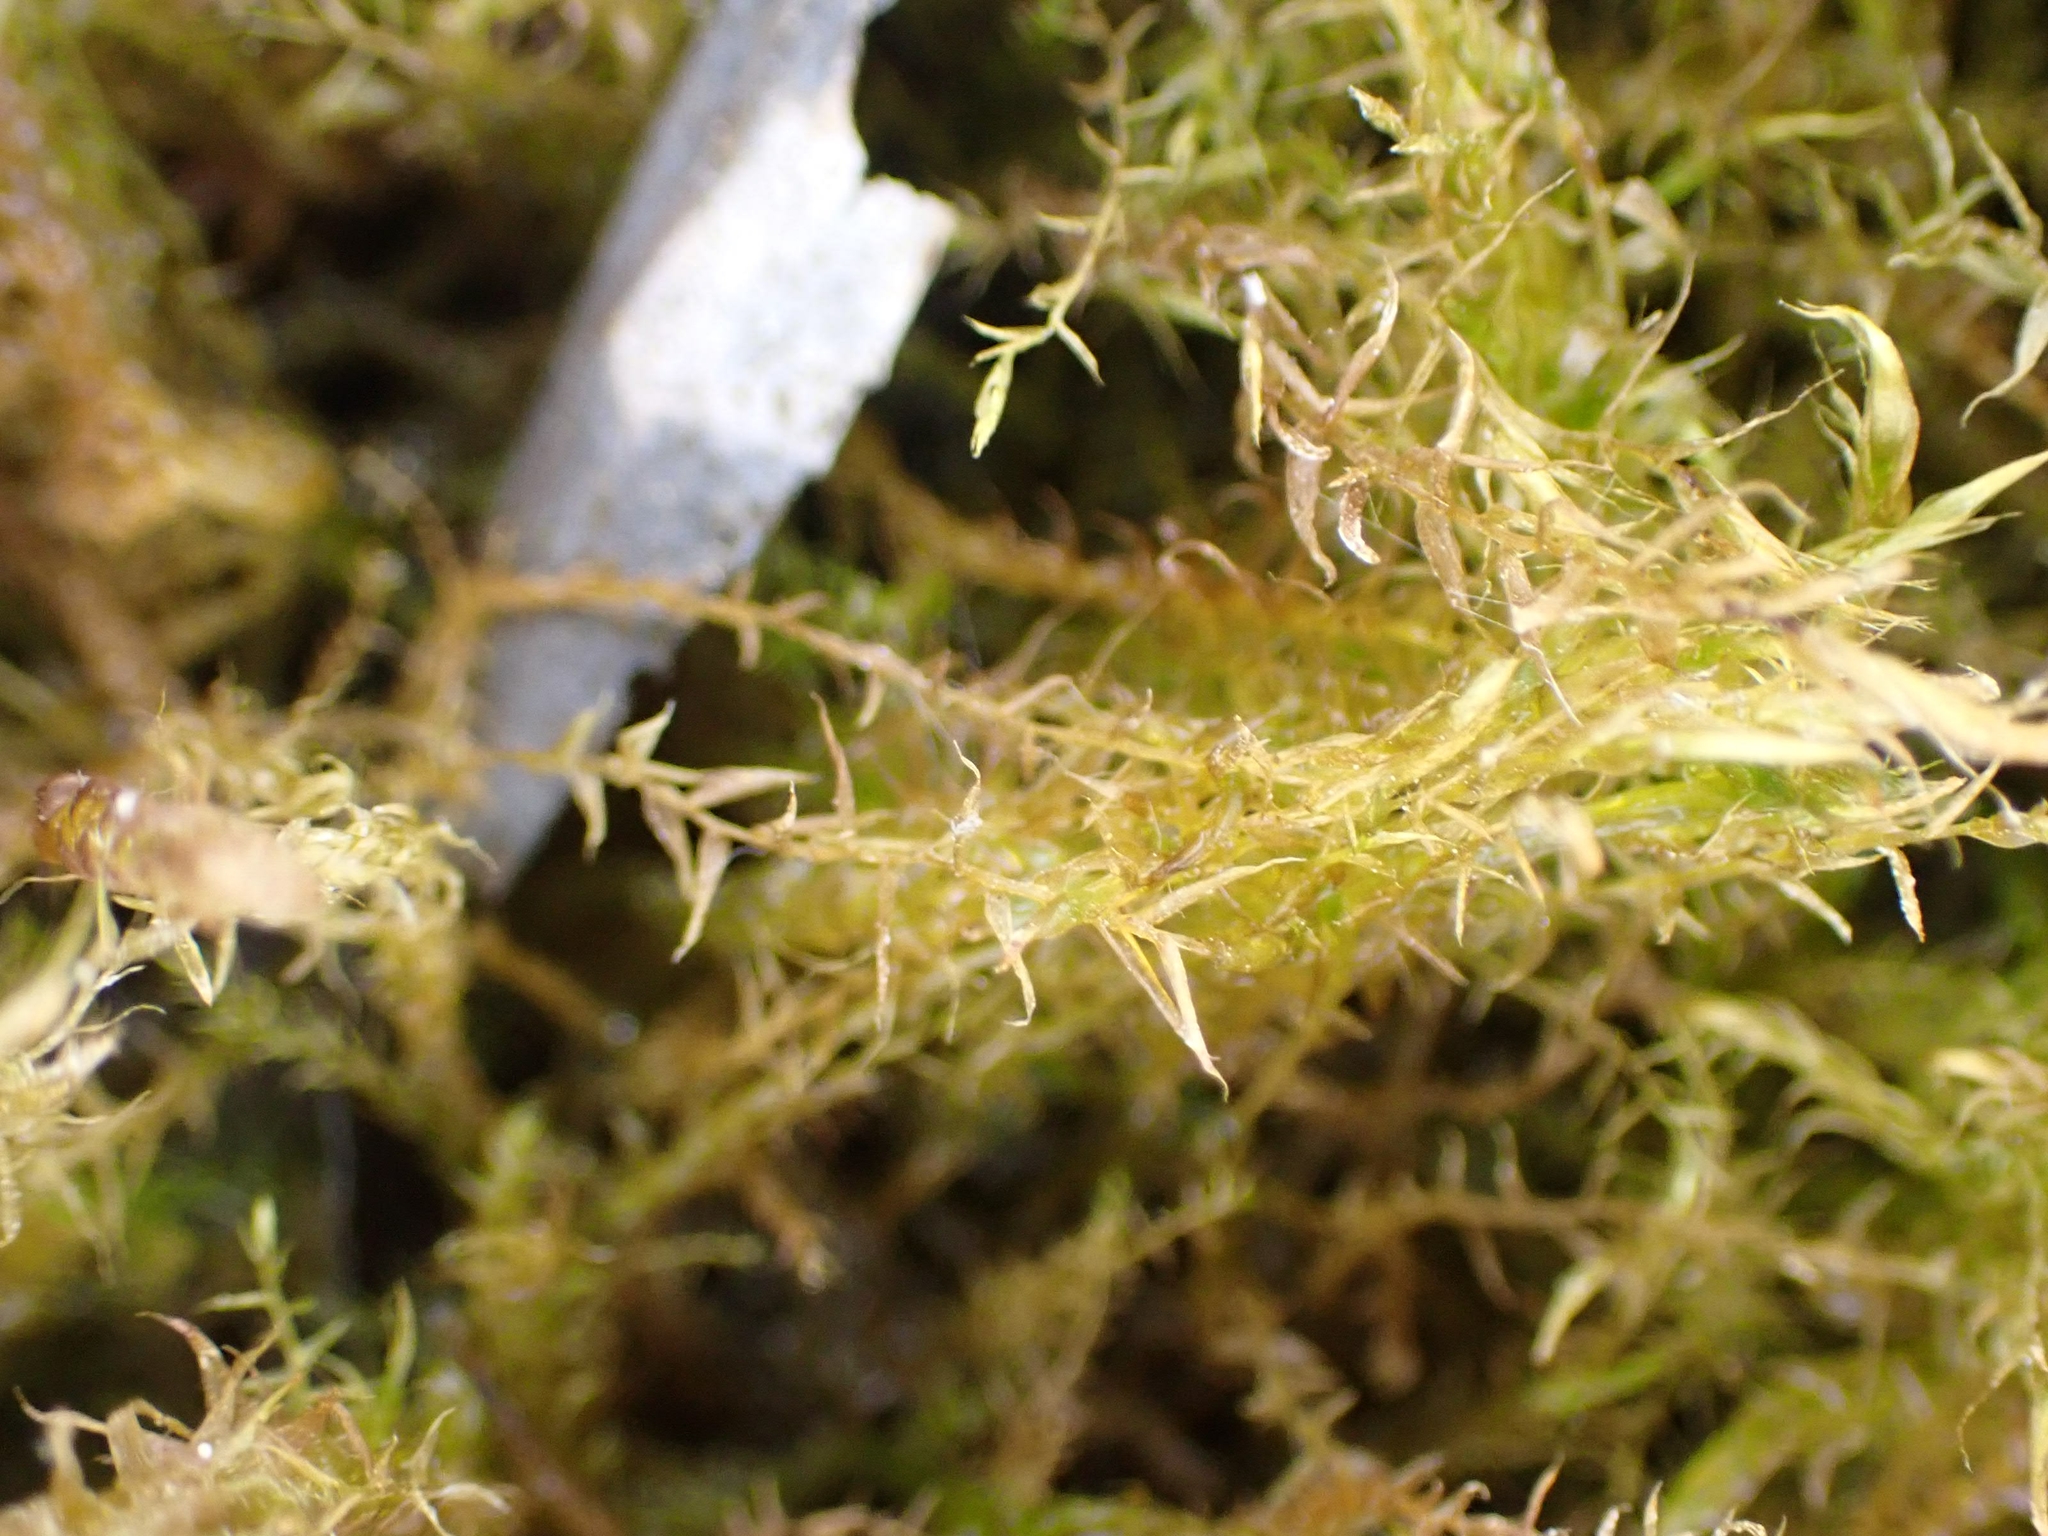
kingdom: Plantae
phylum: Bryophyta
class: Bryopsida
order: Hypnales
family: Amblystegiaceae
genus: Drepanocladus
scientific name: Drepanocladus aduncus
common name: Knieff's hook moss
